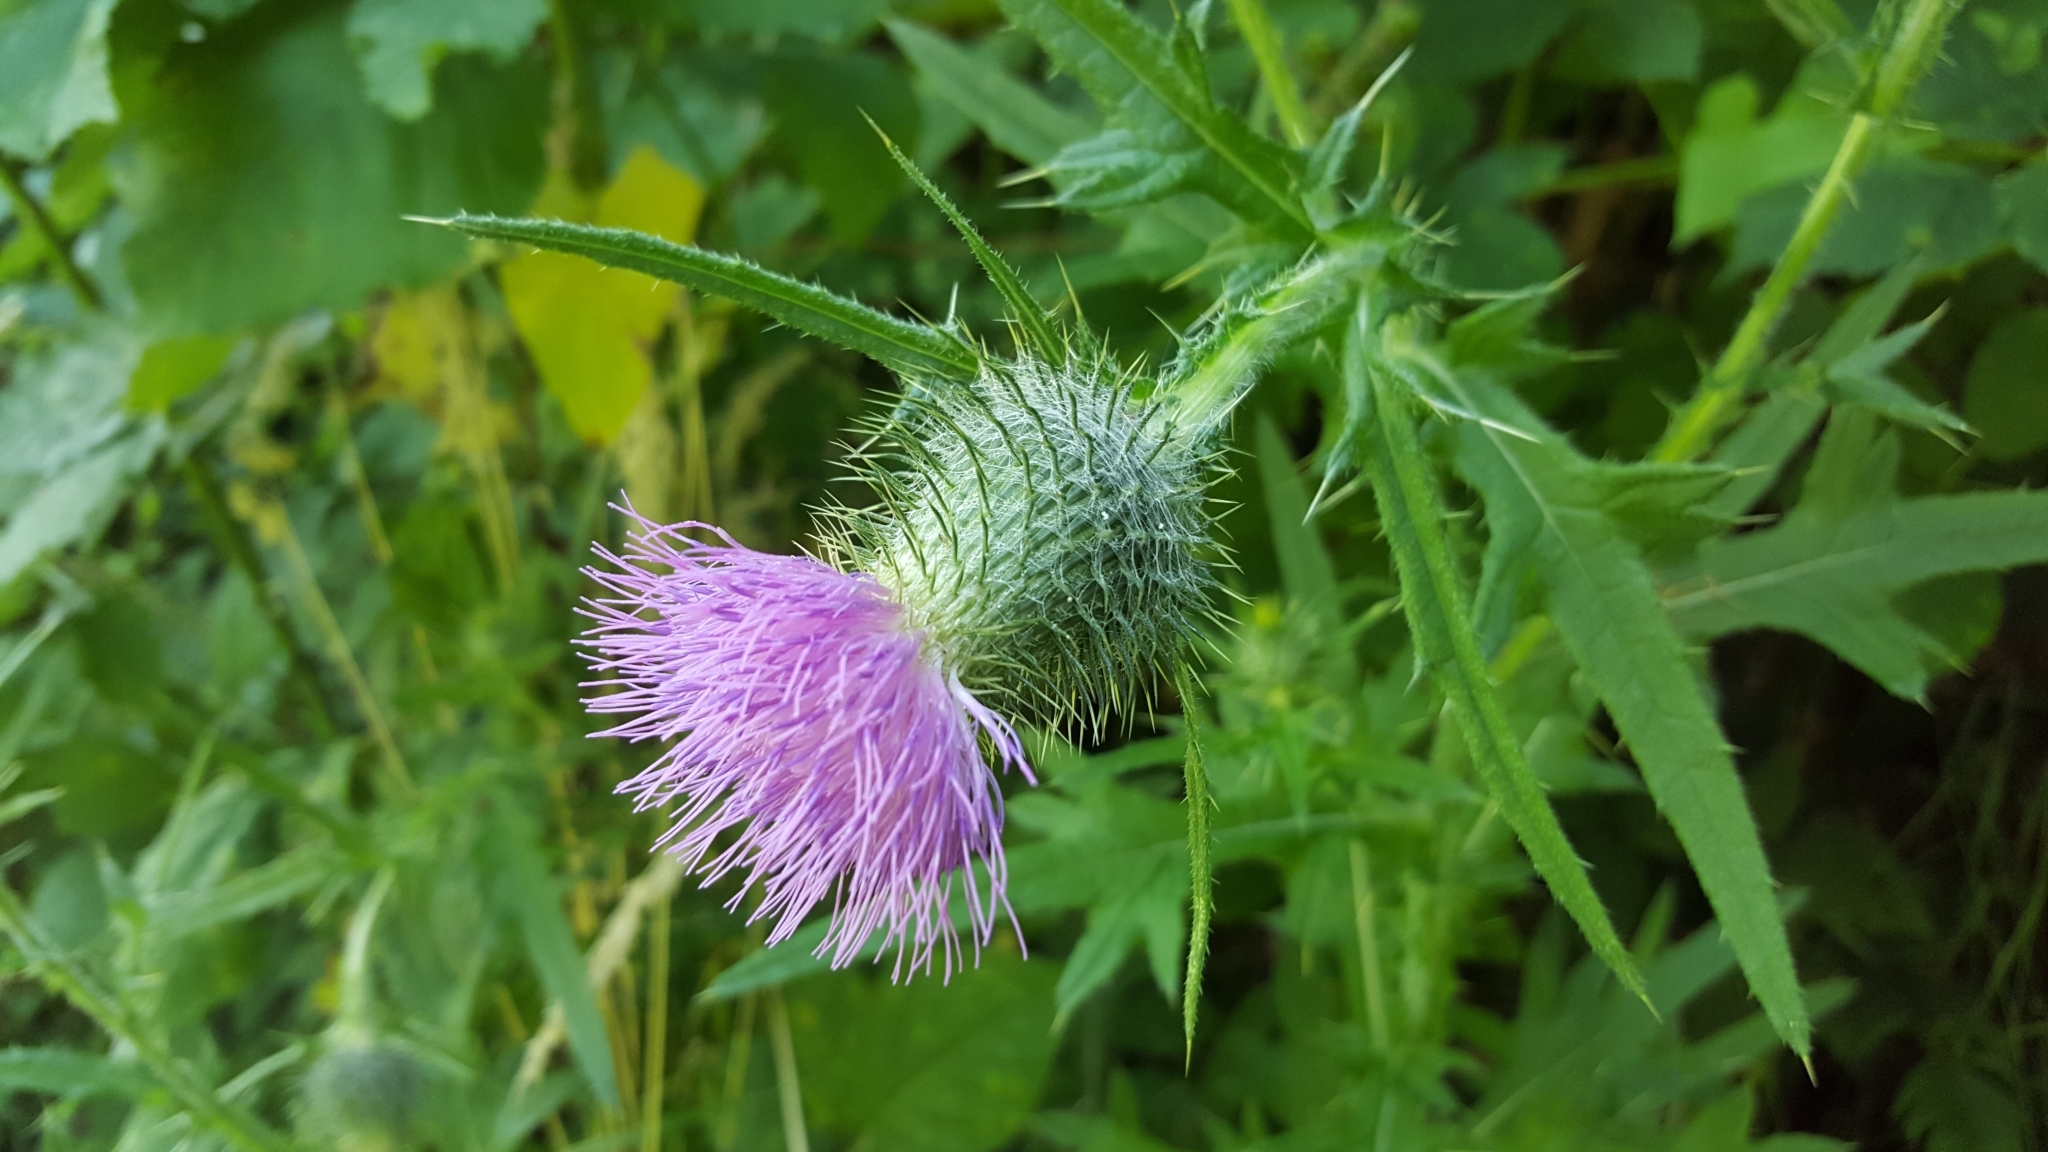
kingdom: Plantae
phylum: Tracheophyta
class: Magnoliopsida
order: Asterales
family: Asteraceae
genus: Cirsium
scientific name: Cirsium vulgare
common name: Bull thistle
